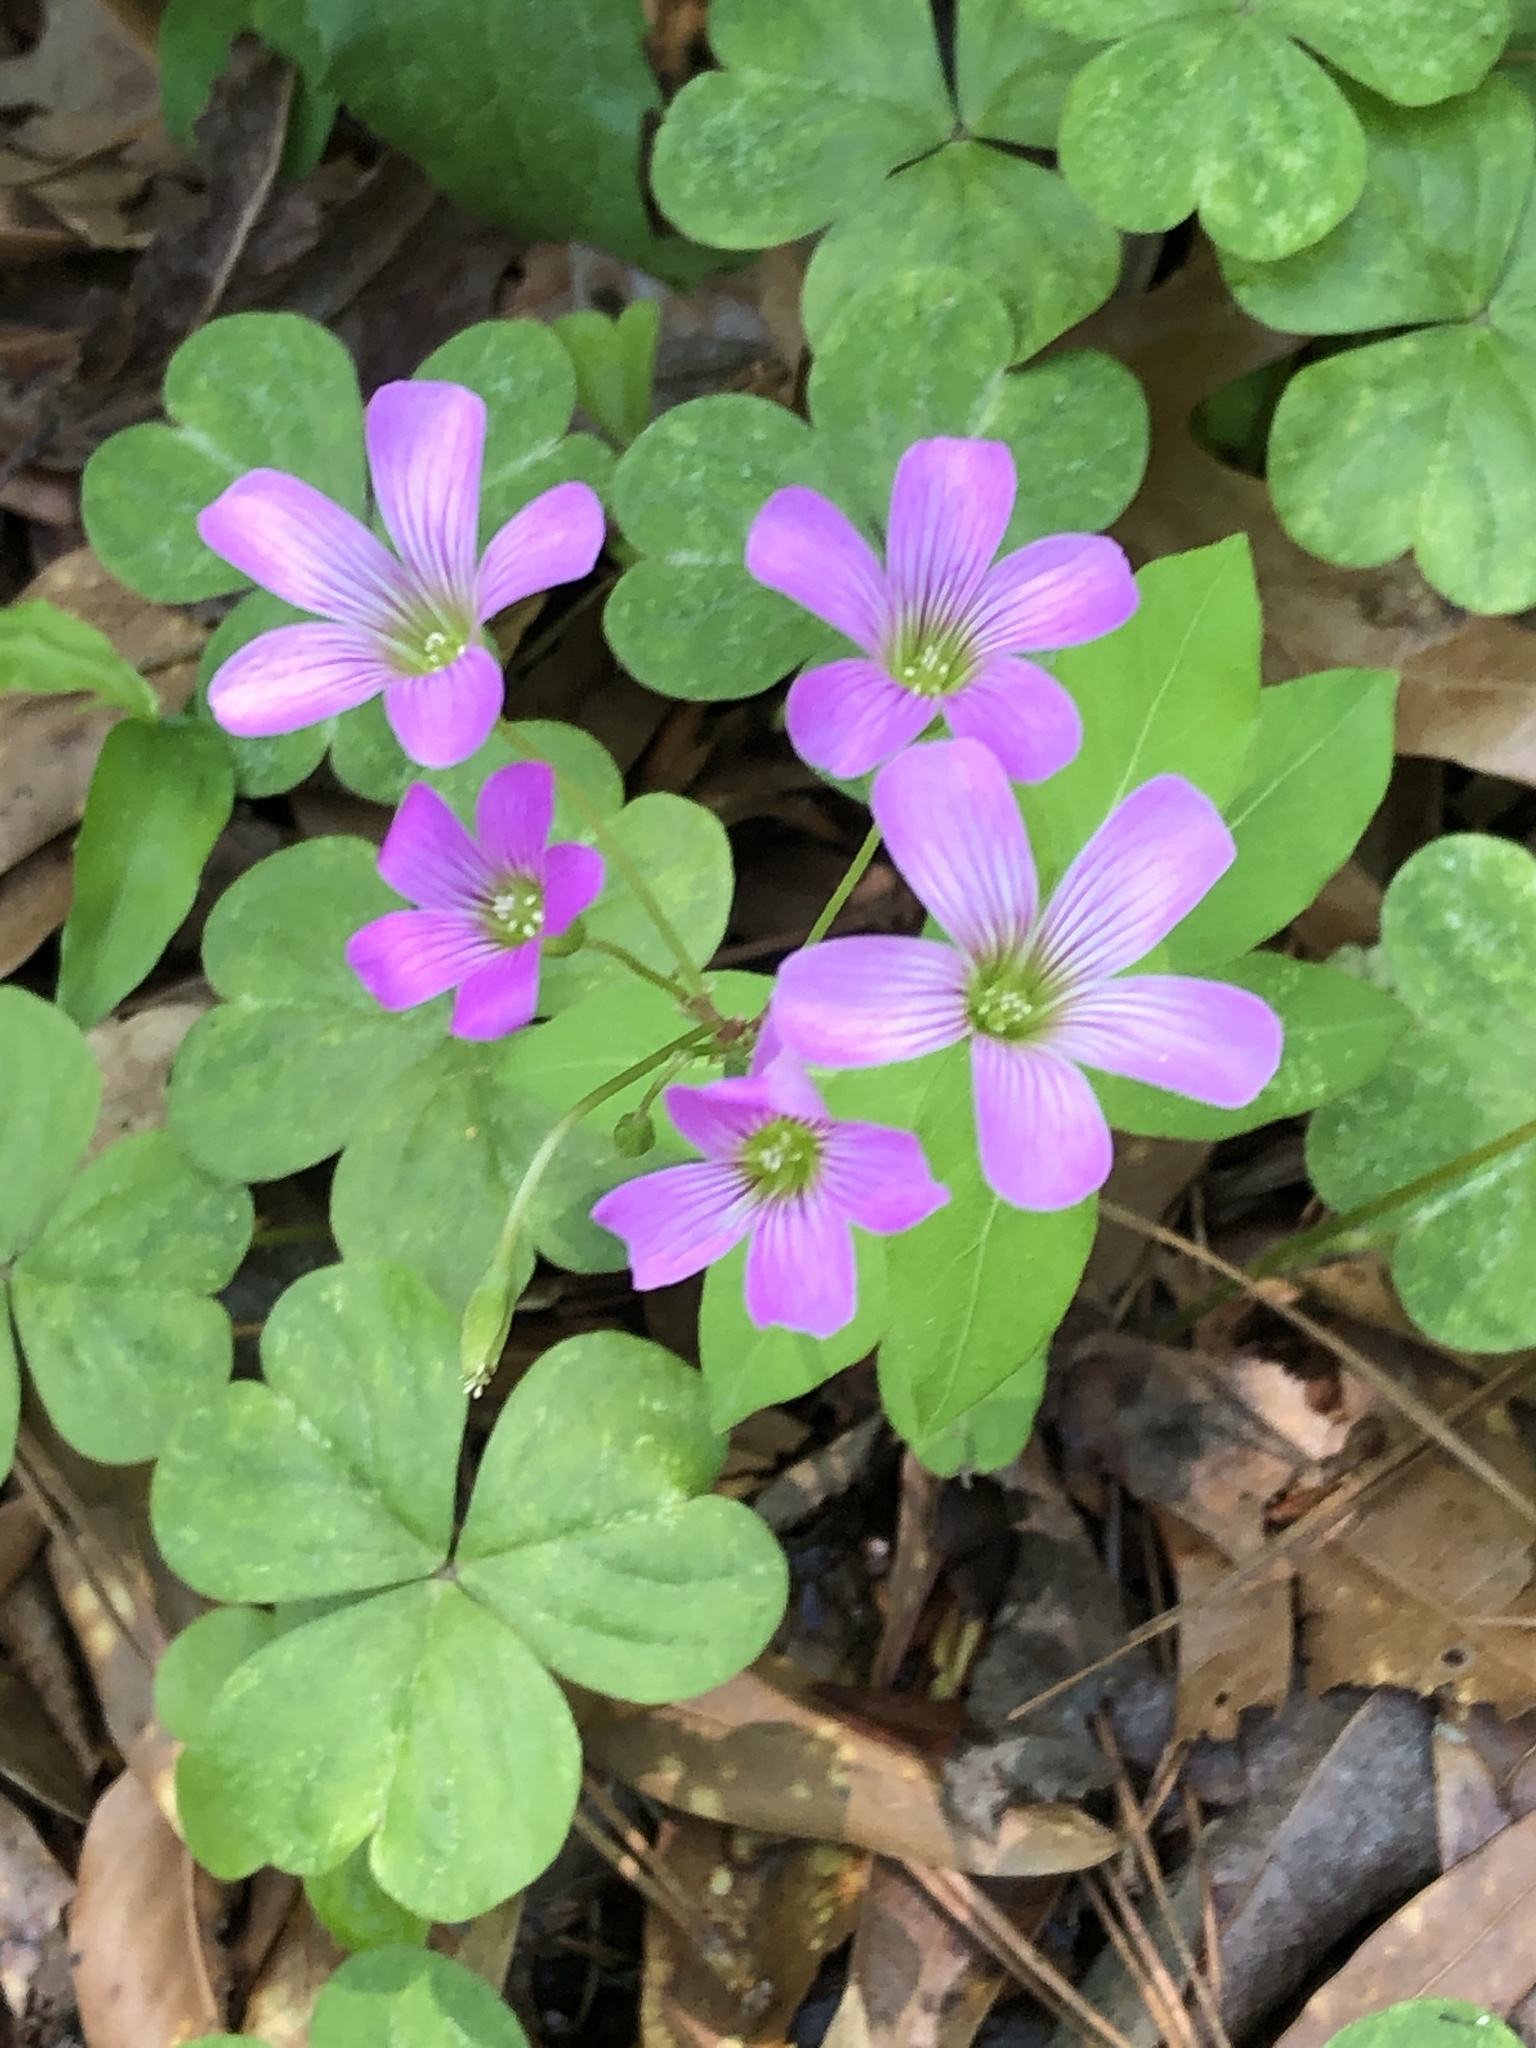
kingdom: Plantae
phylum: Tracheophyta
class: Magnoliopsida
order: Oxalidales
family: Oxalidaceae
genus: Oxalis
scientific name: Oxalis debilis
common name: Large-flowered pink-sorrel
